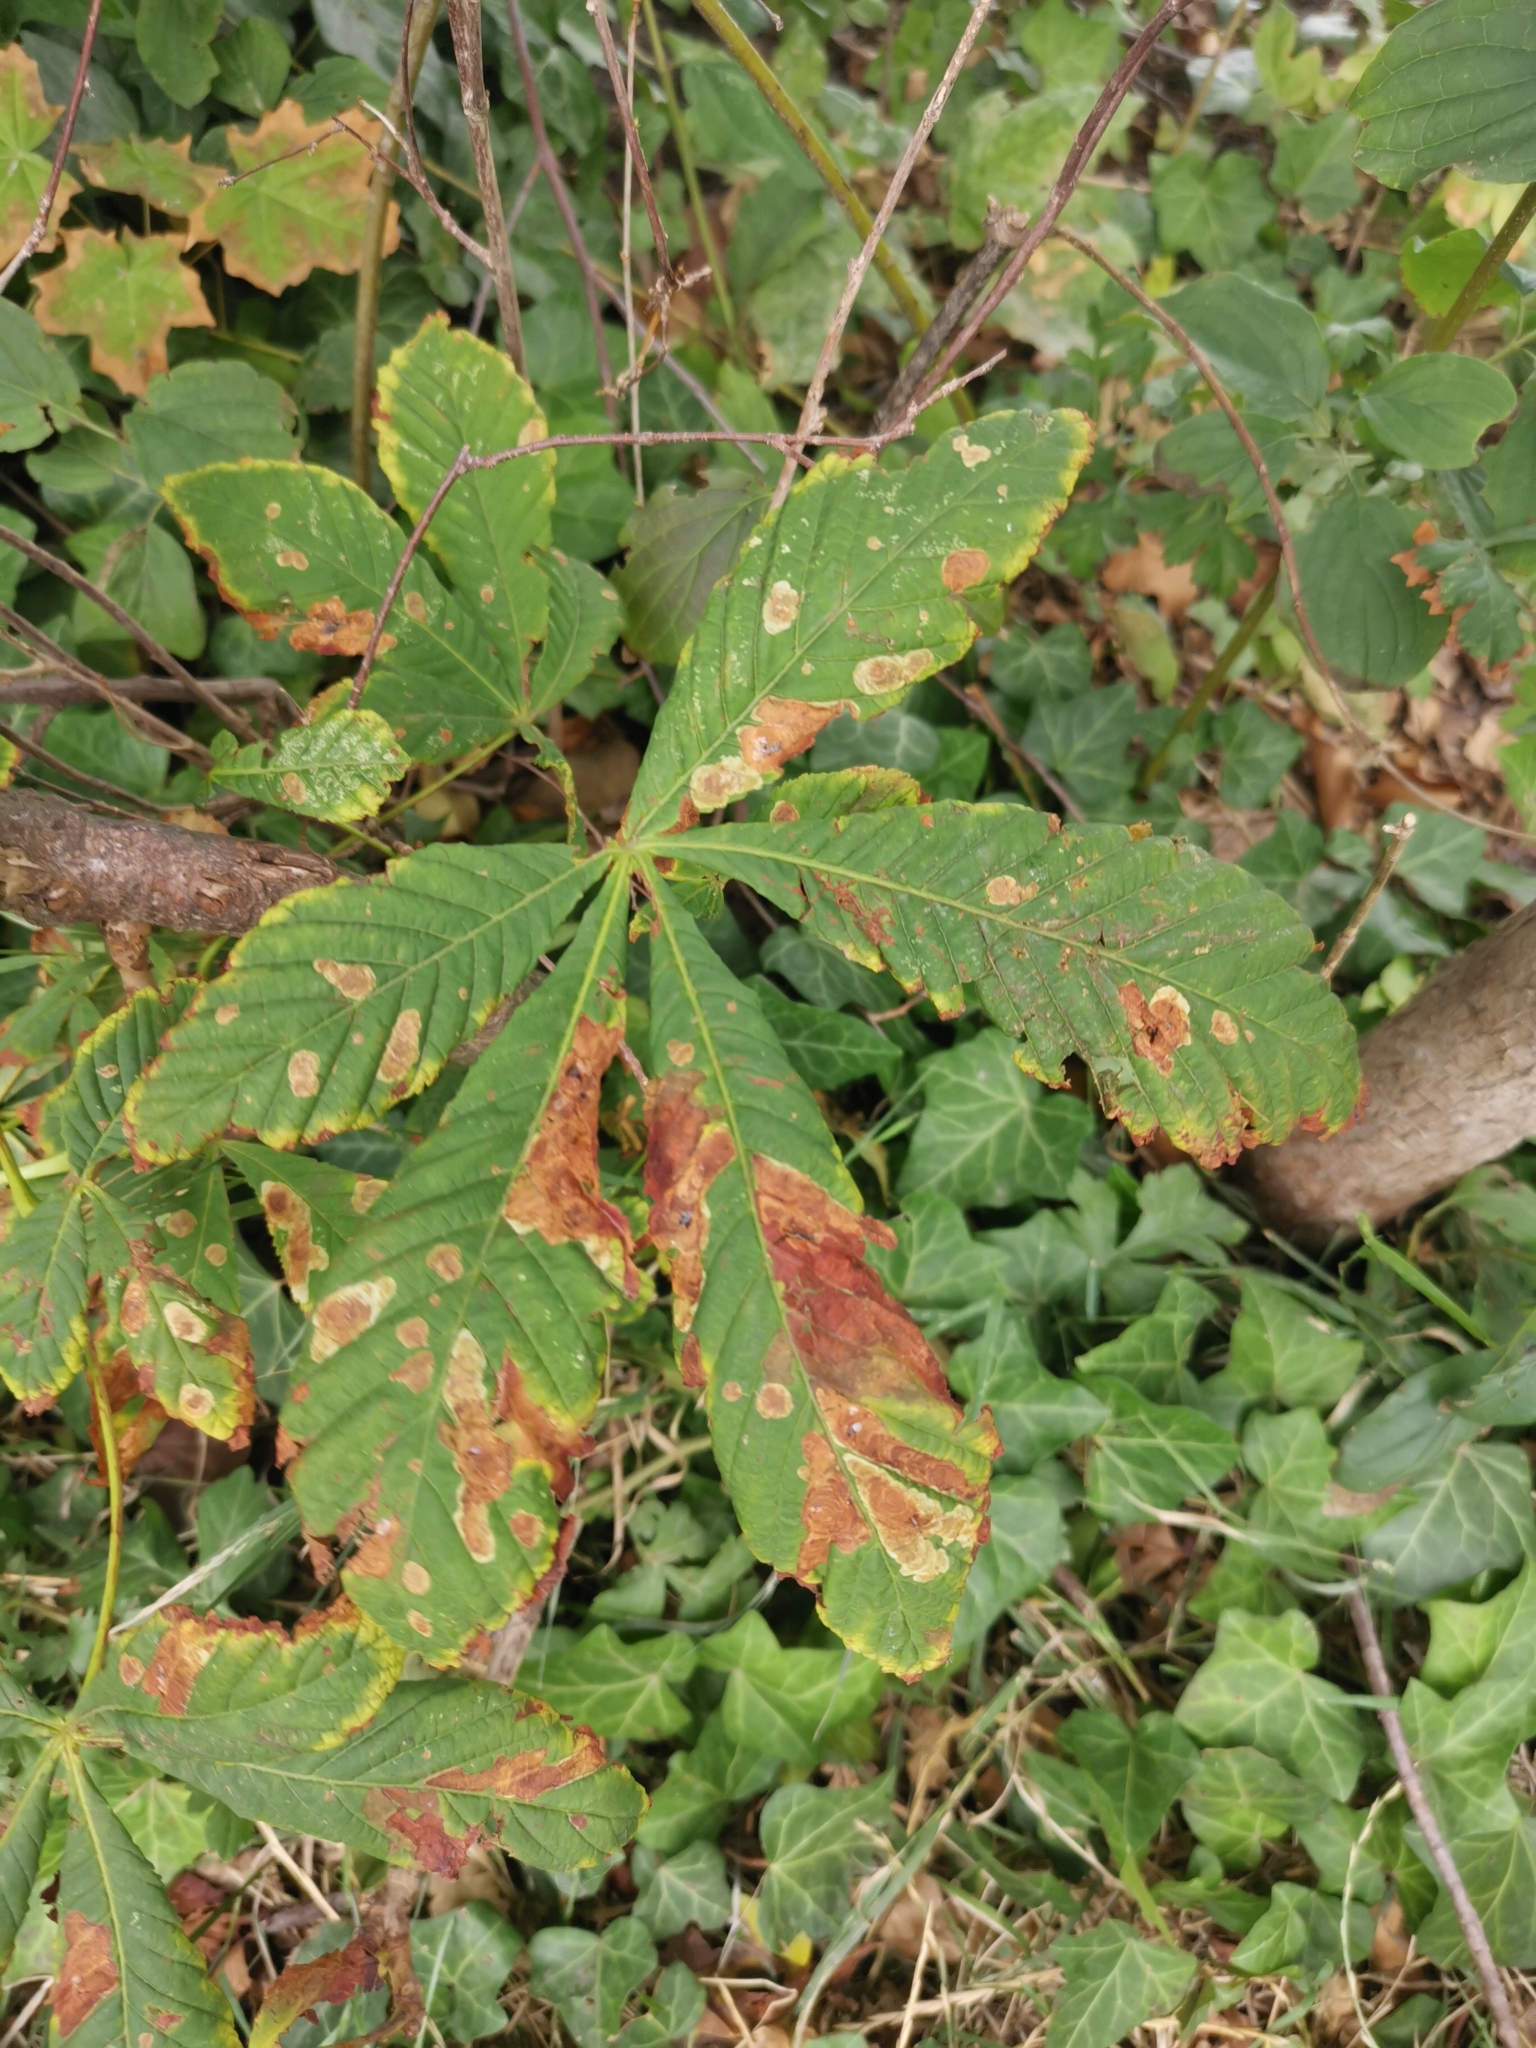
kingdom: Plantae
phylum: Tracheophyta
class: Magnoliopsida
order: Sapindales
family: Sapindaceae
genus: Aesculus
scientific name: Aesculus hippocastanum
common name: Horse-chestnut
